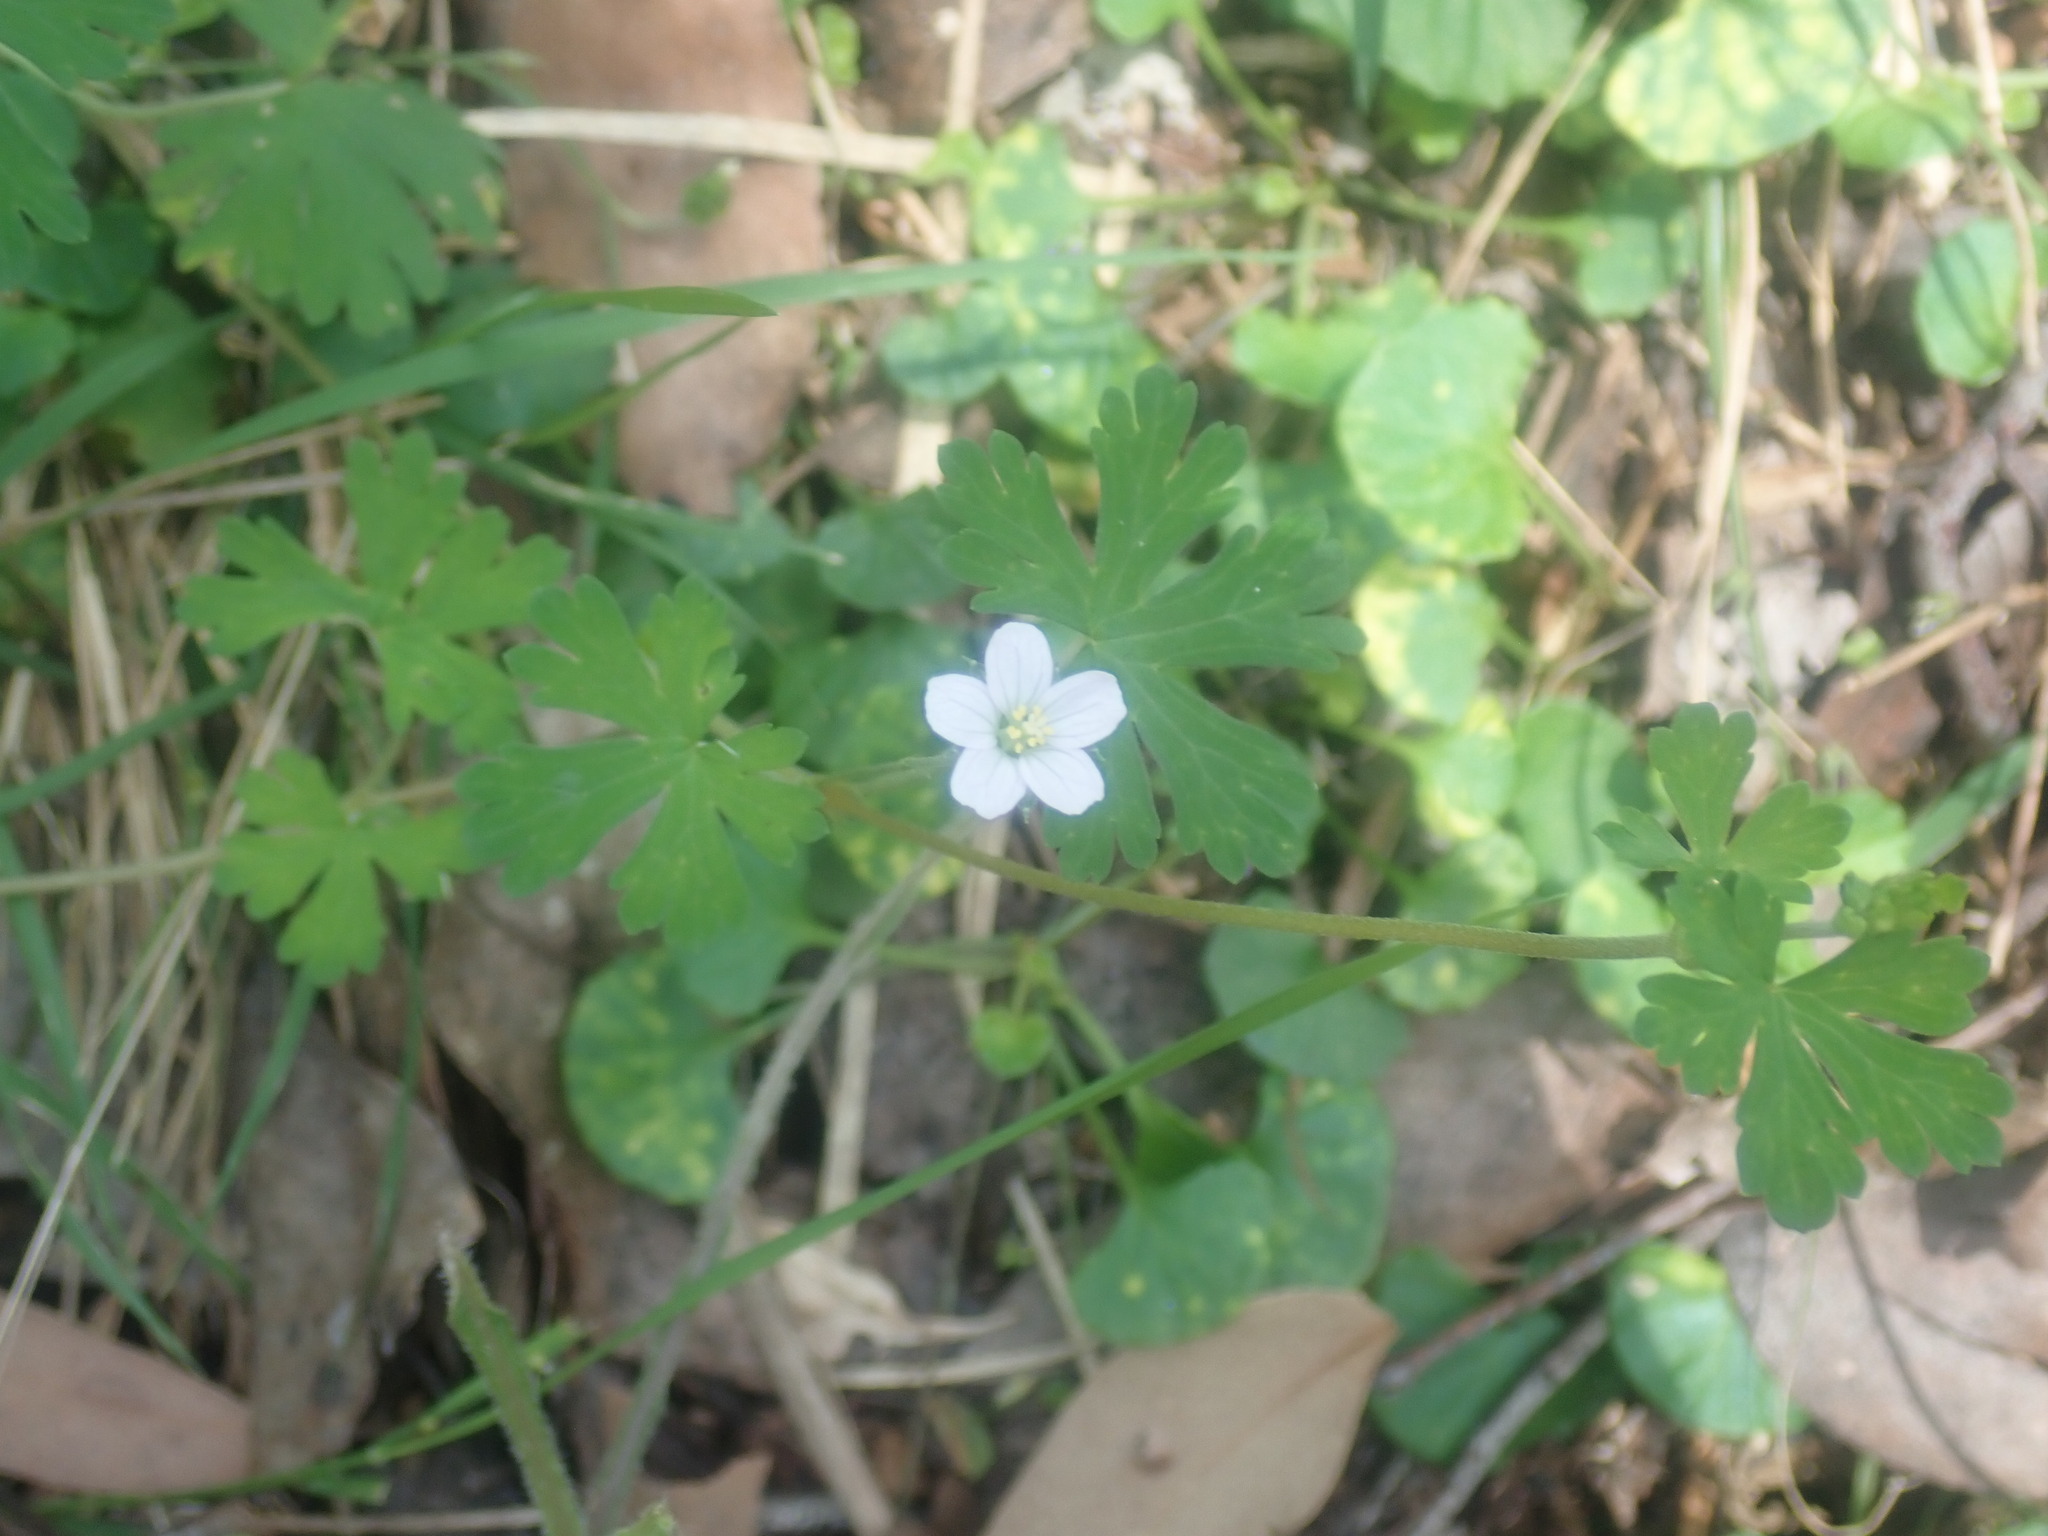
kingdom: Plantae
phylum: Tracheophyta
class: Magnoliopsida
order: Geraniales
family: Geraniaceae
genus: Geranium
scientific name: Geranium potentilloides
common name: Cinquefoil geranium
